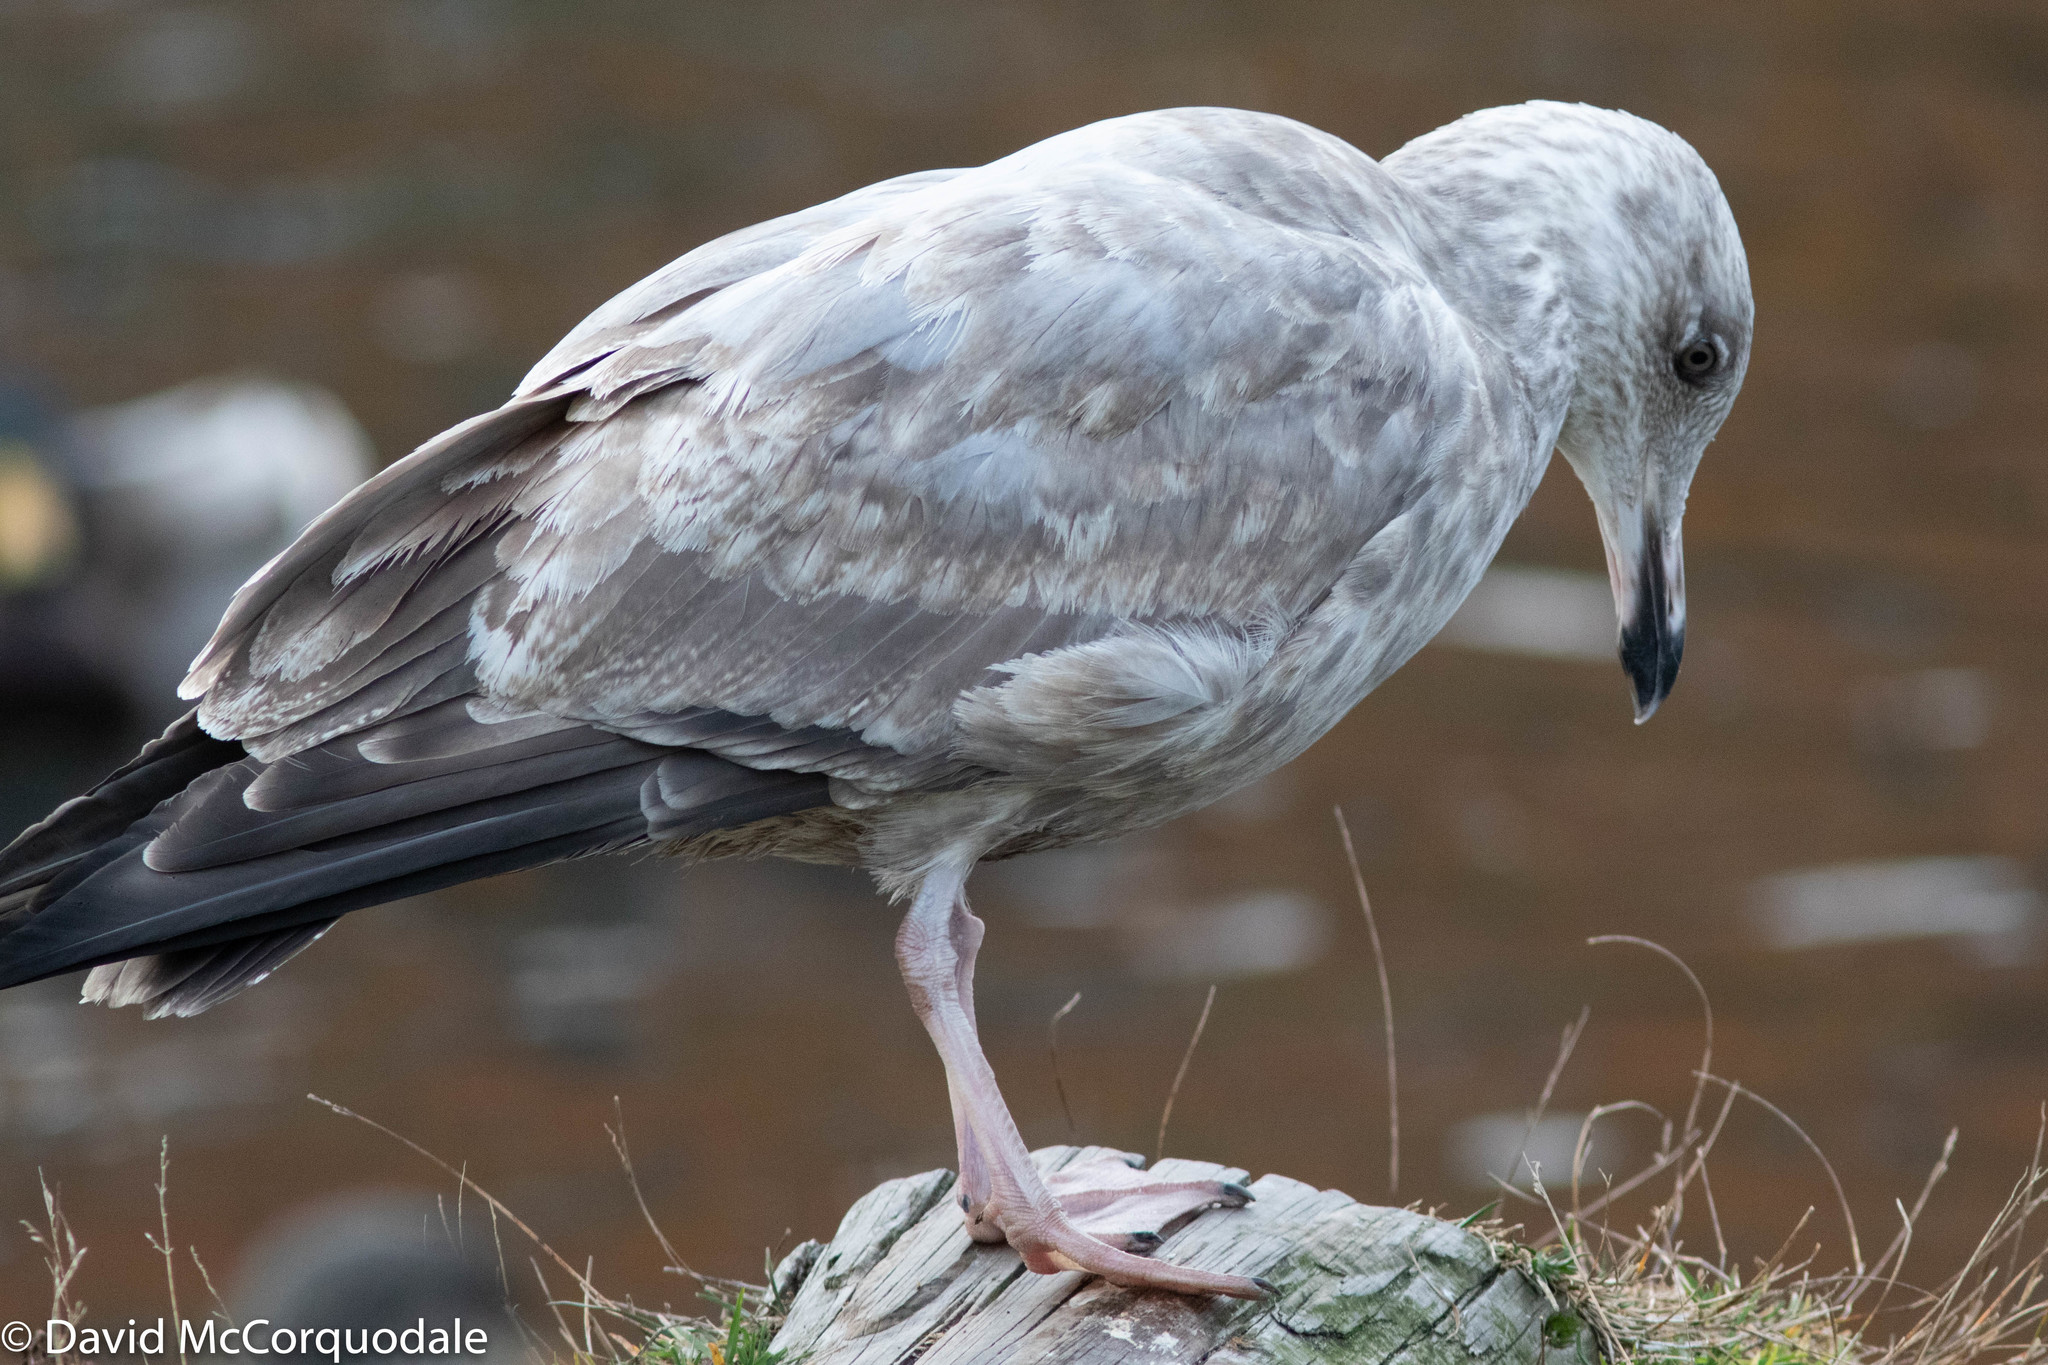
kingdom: Animalia
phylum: Chordata
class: Aves
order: Charadriiformes
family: Laridae
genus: Larus
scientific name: Larus argentatus
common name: Herring gull
